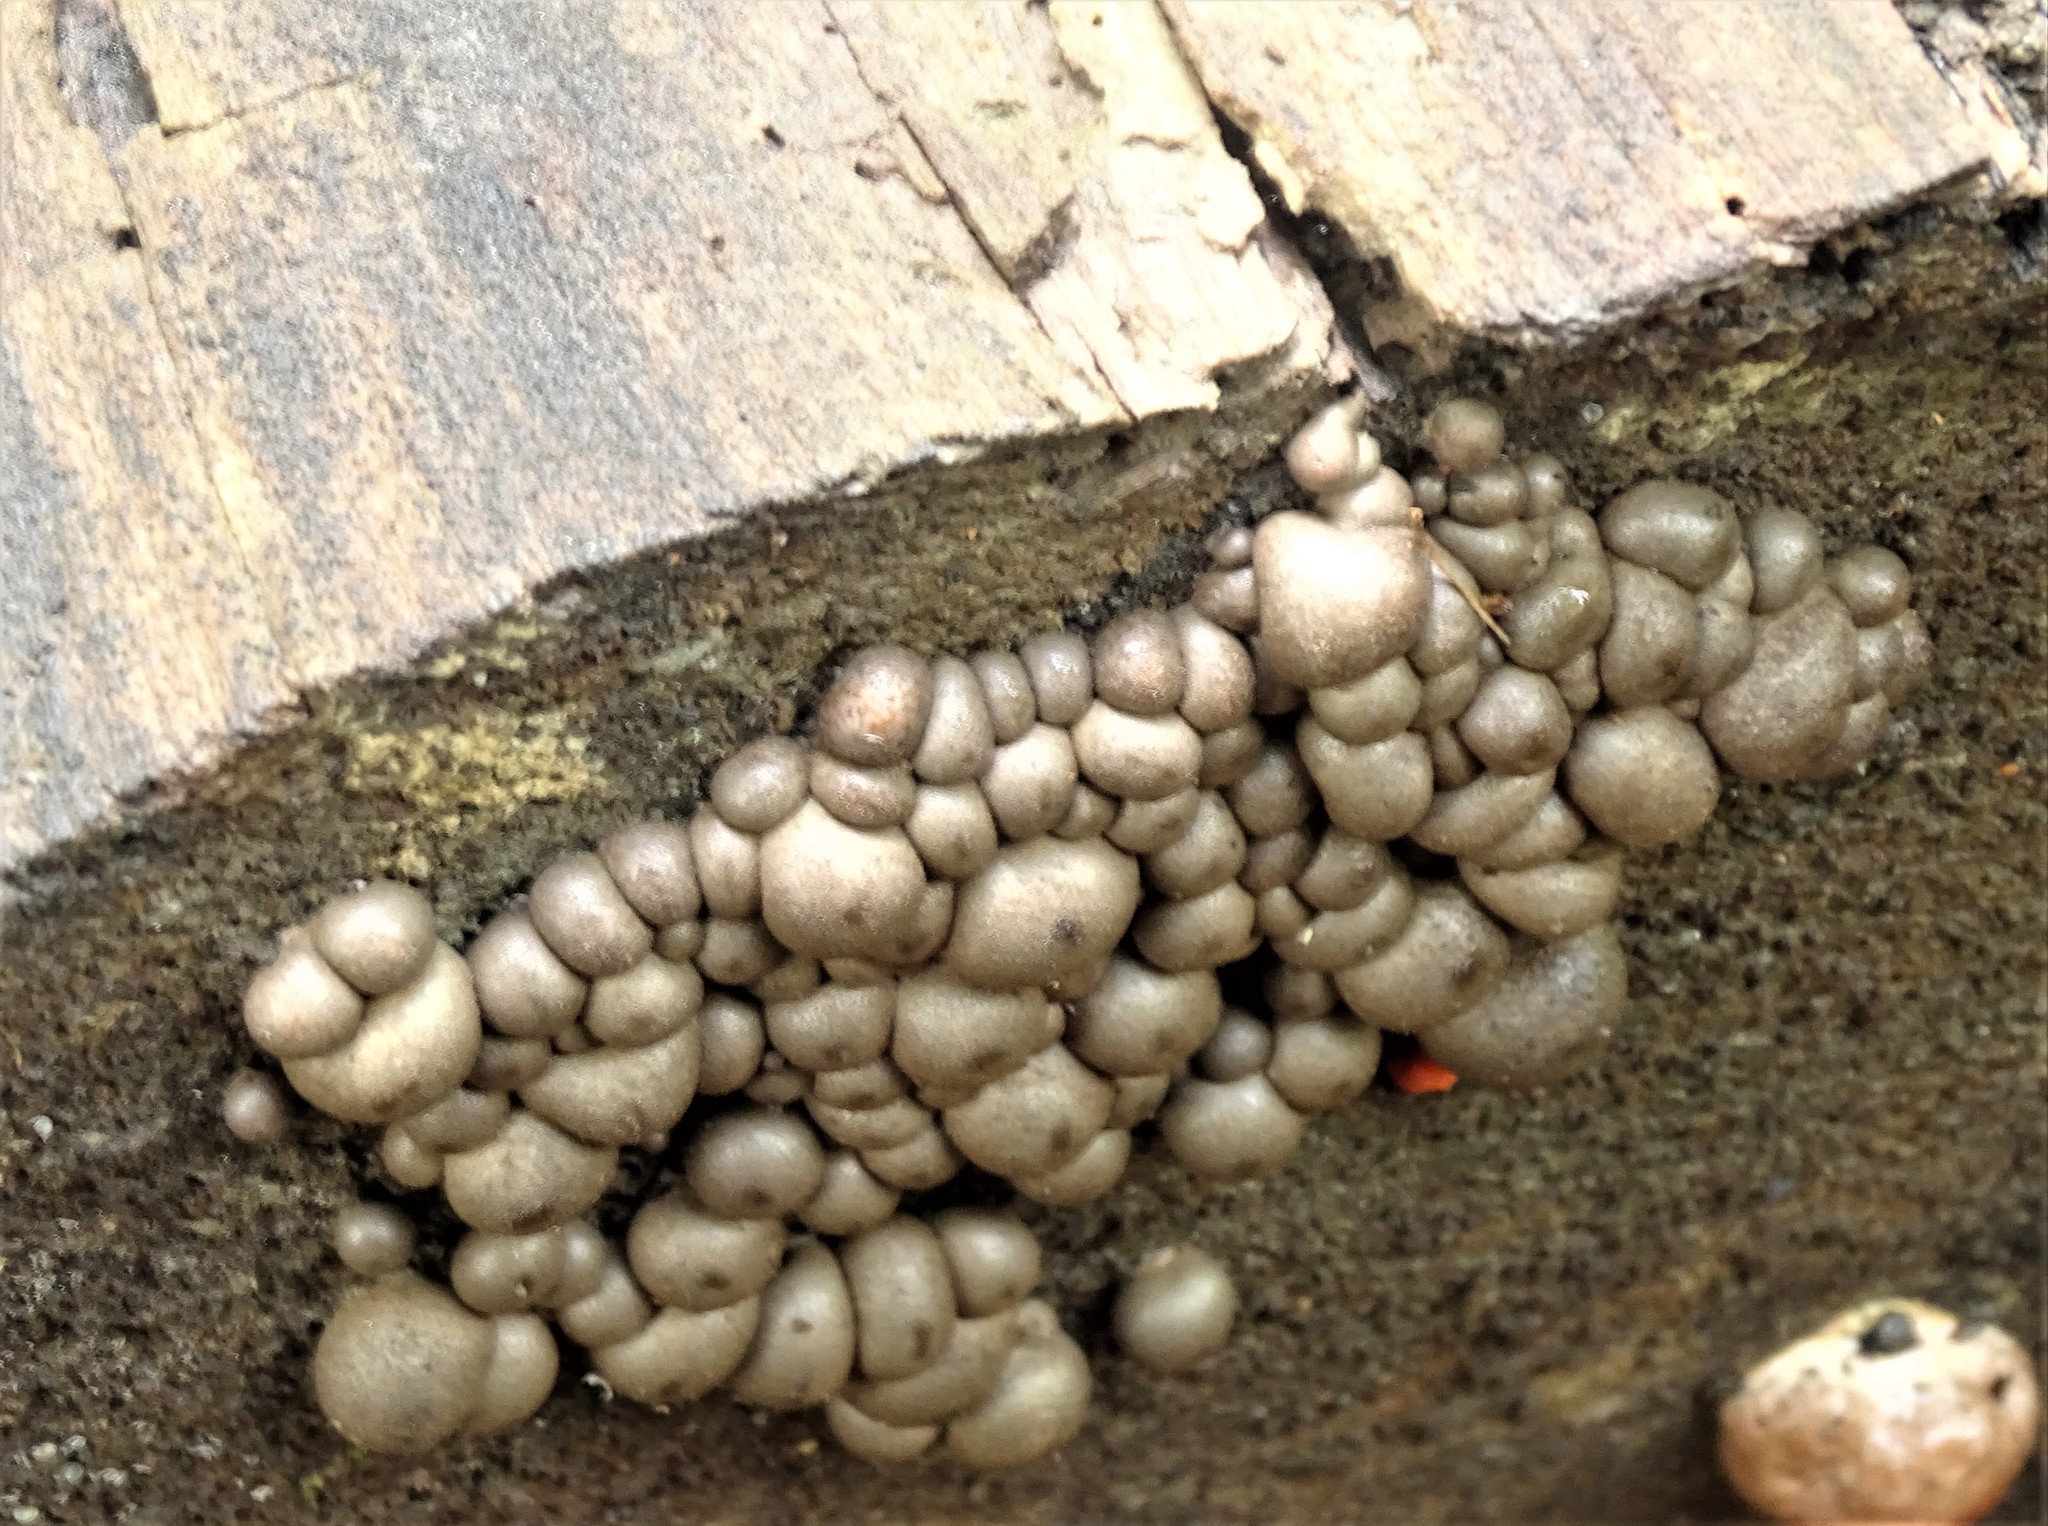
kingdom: Protozoa
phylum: Mycetozoa
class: Myxomycetes
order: Cribrariales
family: Tubiferaceae
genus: Lycogala
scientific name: Lycogala epidendrum
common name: Wolf's milk
